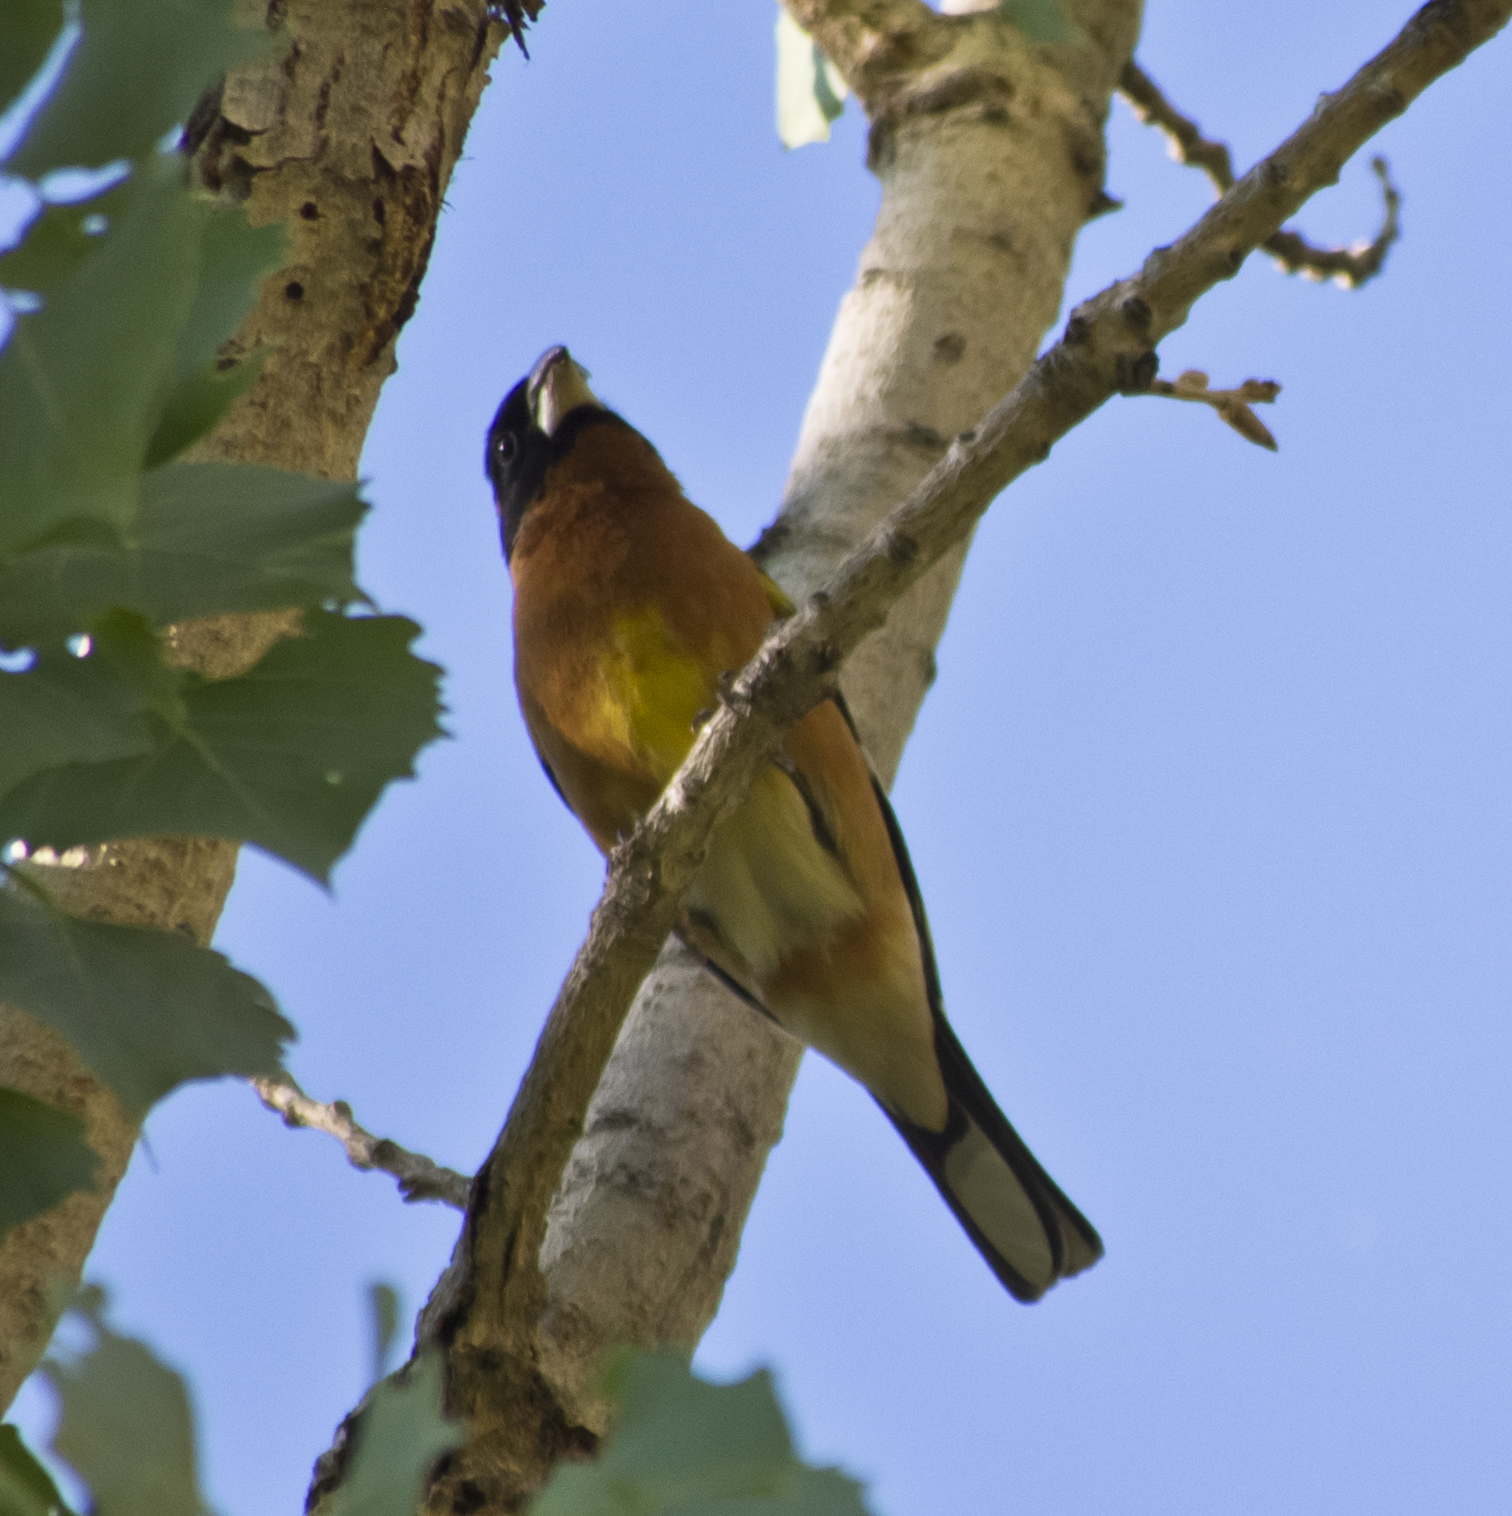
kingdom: Animalia
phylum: Chordata
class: Aves
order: Passeriformes
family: Cardinalidae
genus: Pheucticus
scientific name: Pheucticus melanocephalus
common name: Black-headed grosbeak
